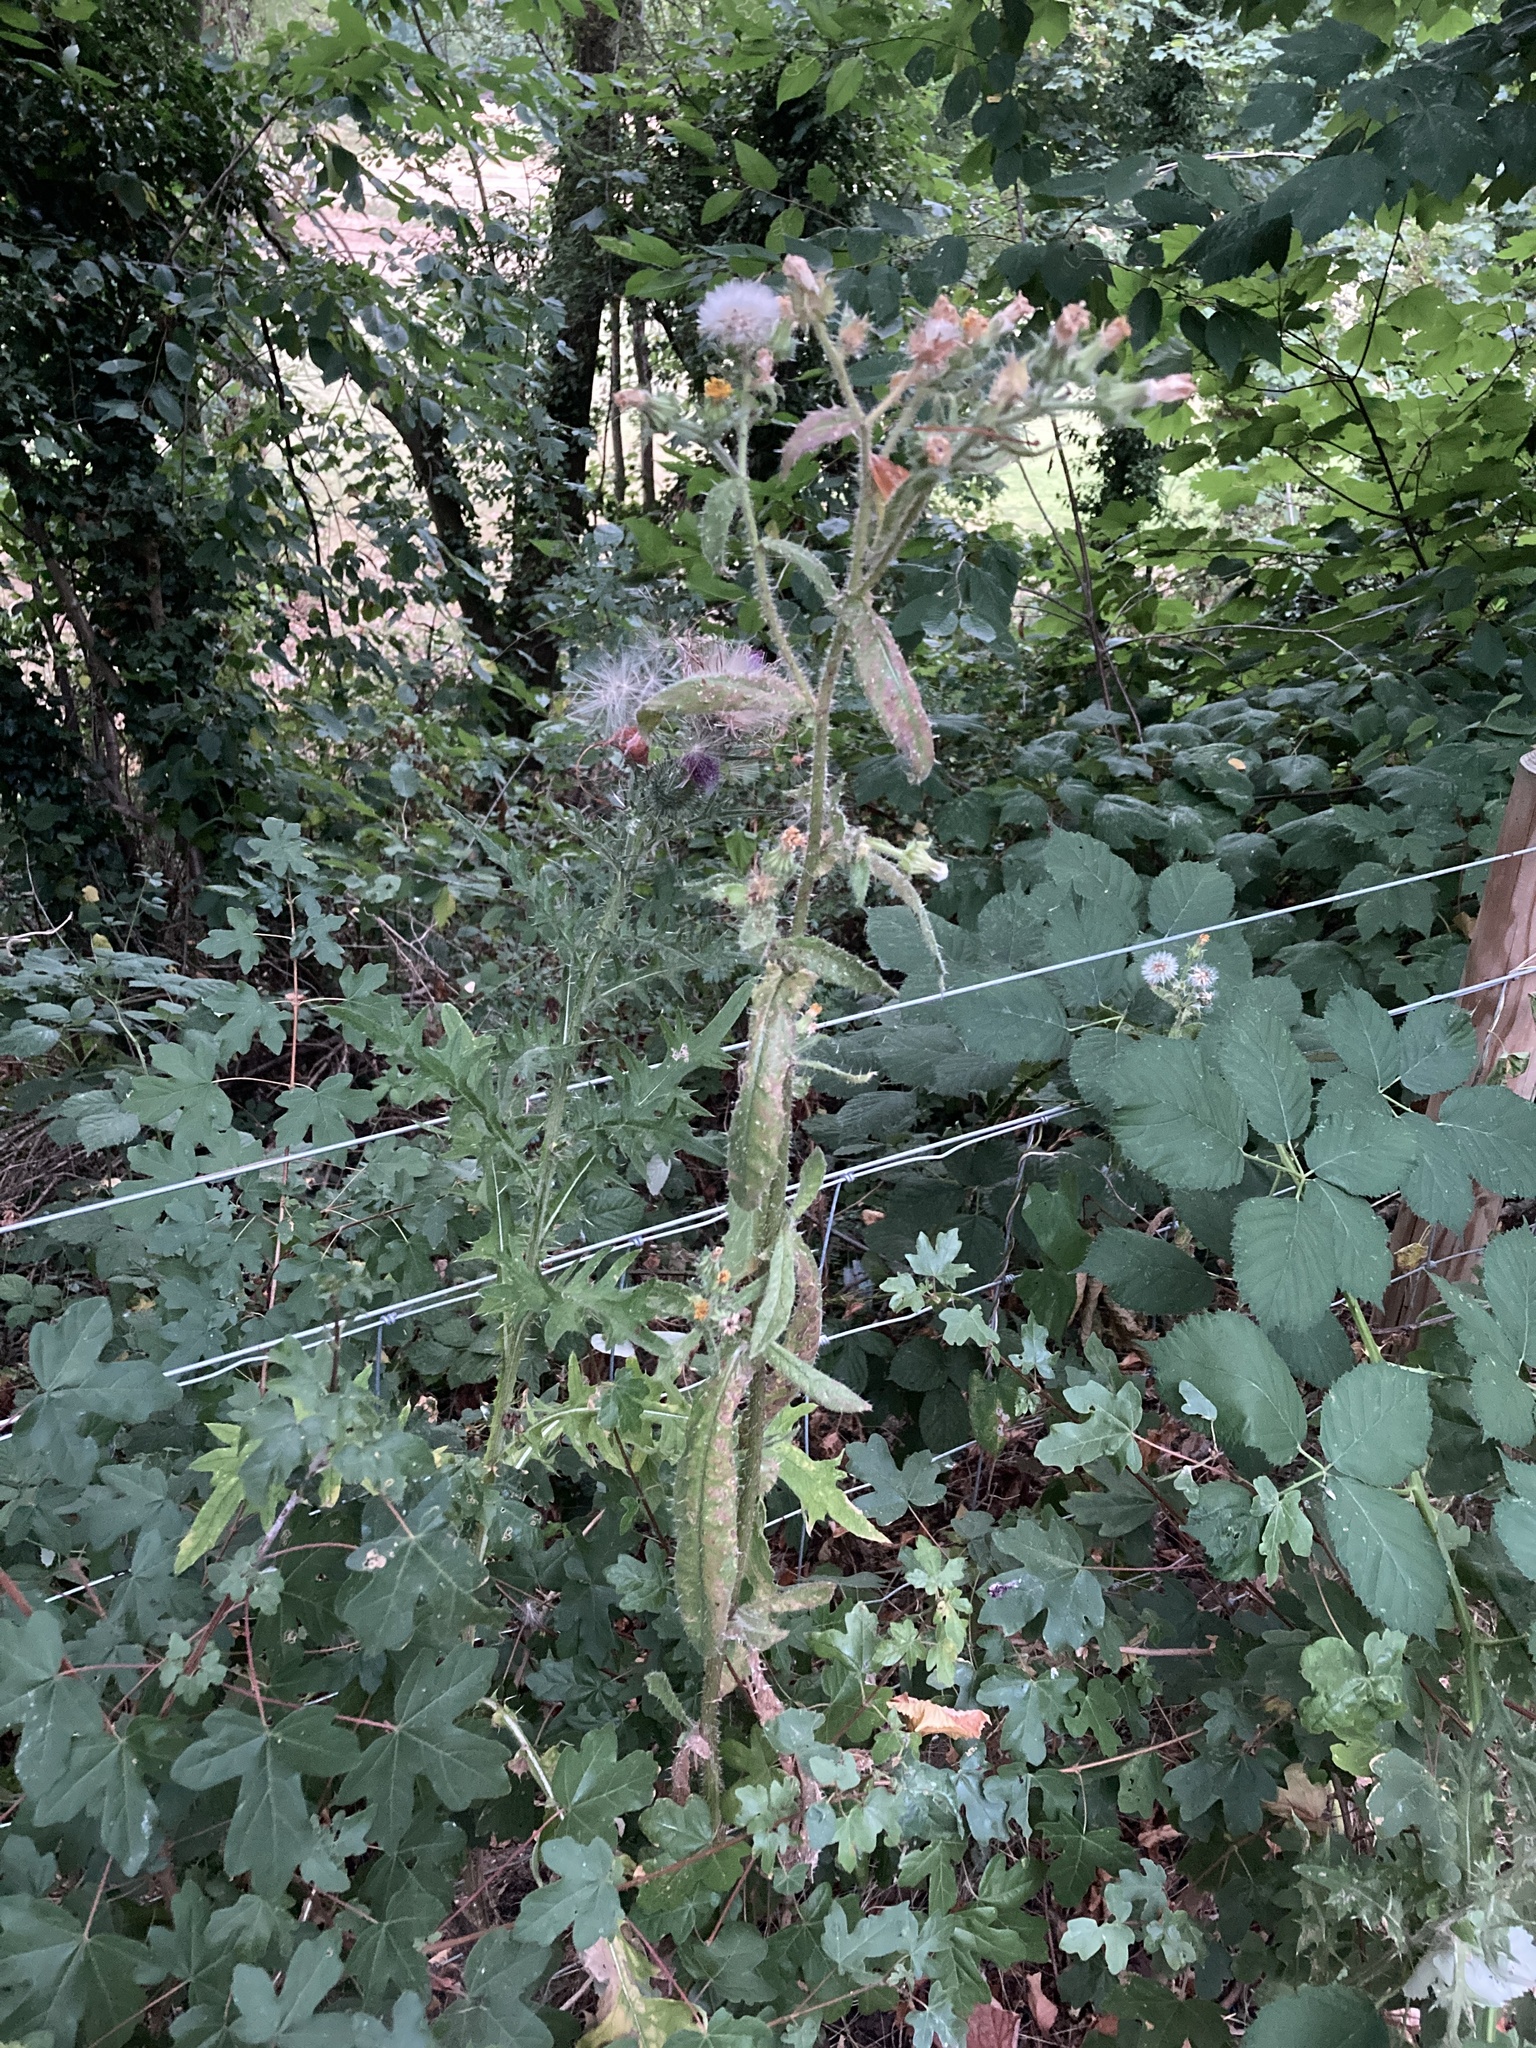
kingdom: Plantae
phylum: Tracheophyta
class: Magnoliopsida
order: Asterales
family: Asteraceae
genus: Helminthotheca
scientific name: Helminthotheca echioides
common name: Ox-tongue
